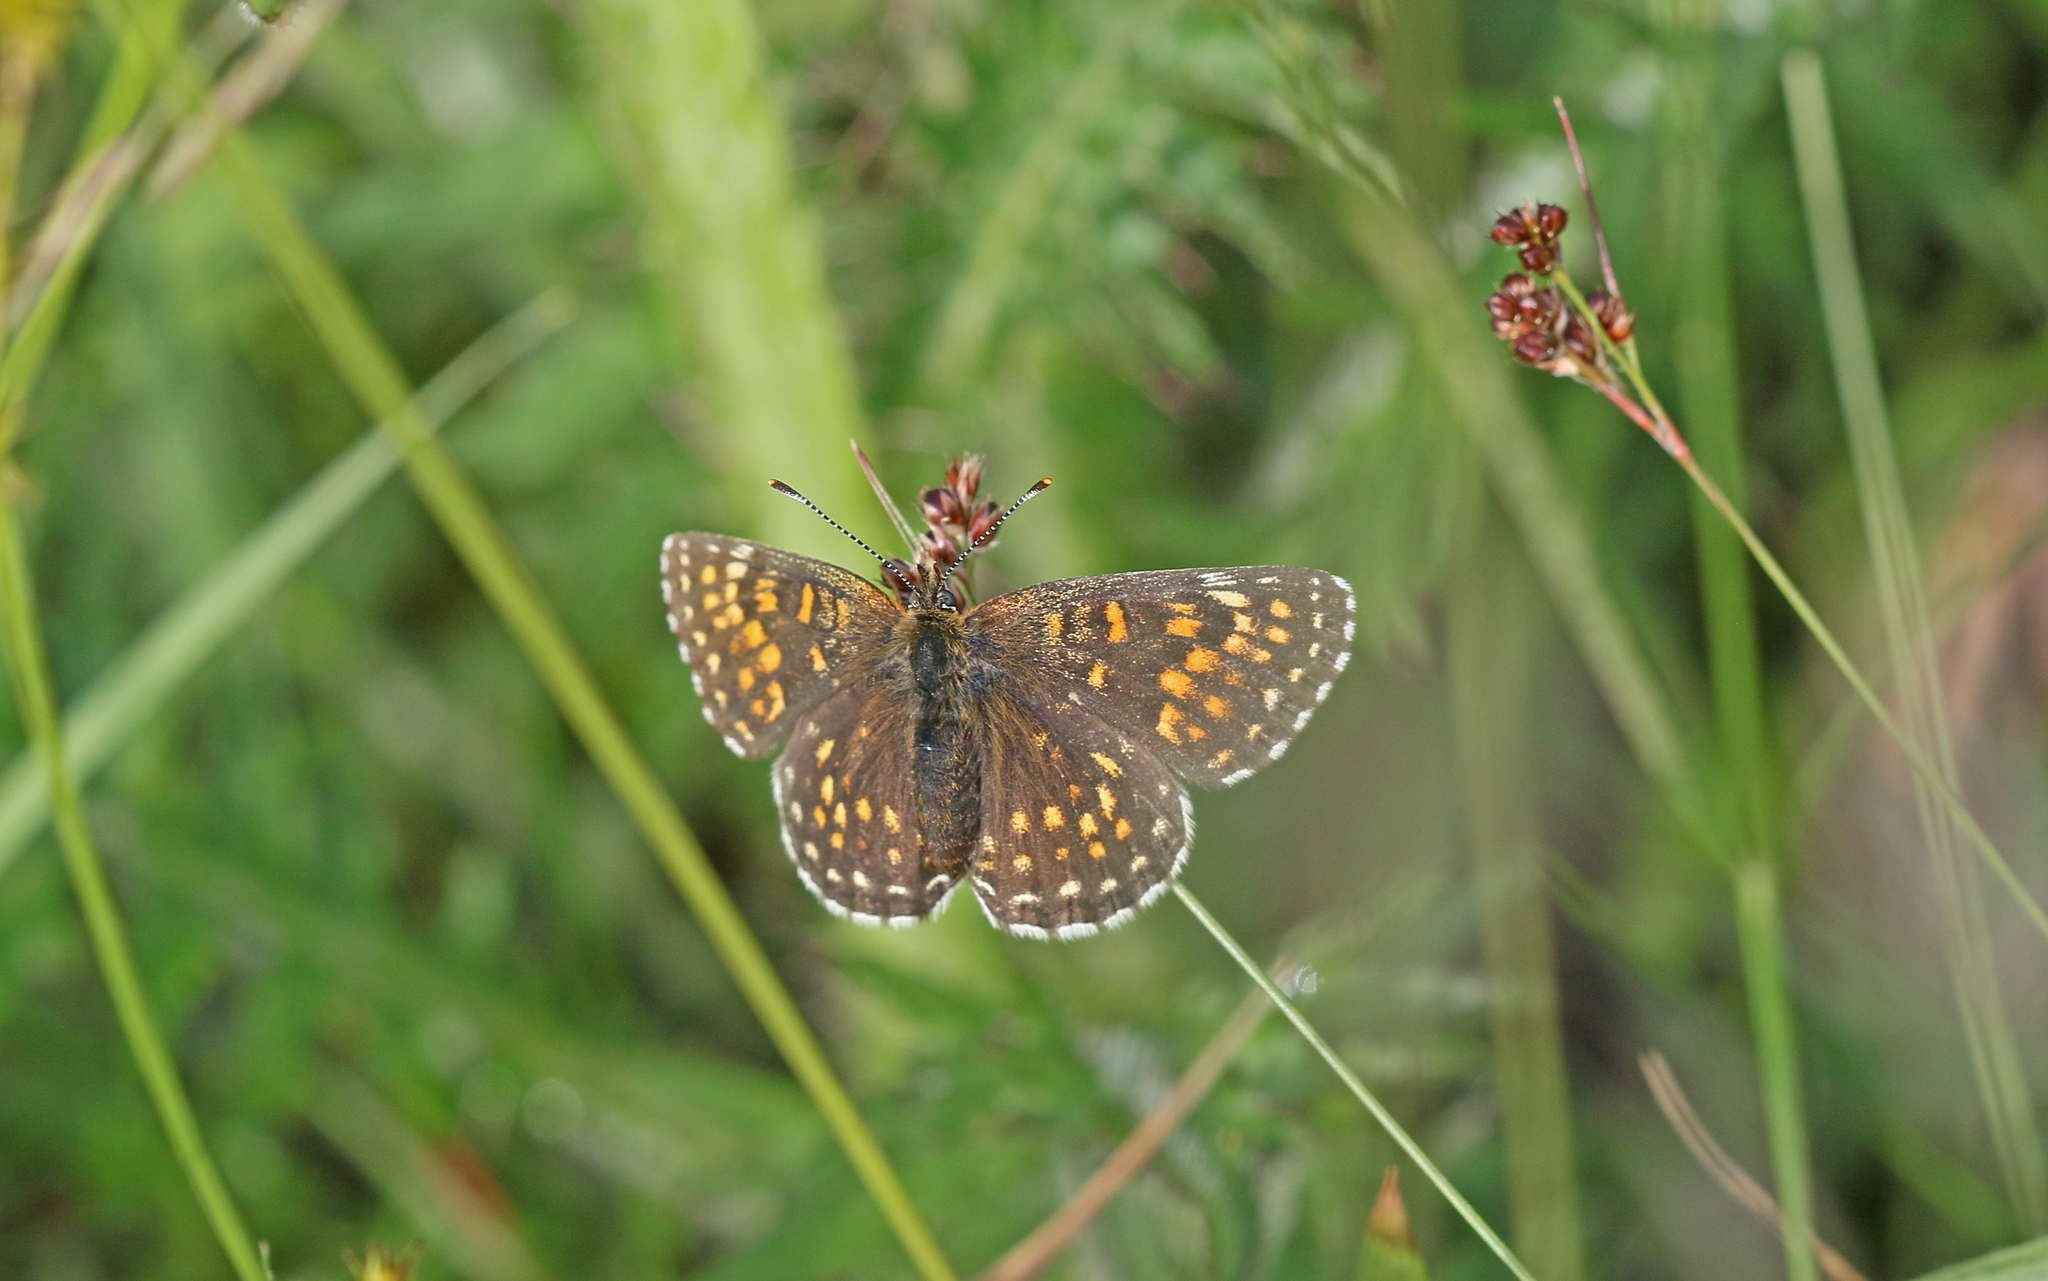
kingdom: Animalia
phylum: Arthropoda
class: Insecta
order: Lepidoptera
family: Nymphalidae
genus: Melitaea
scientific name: Melitaea diamina
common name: False heath fritillary
